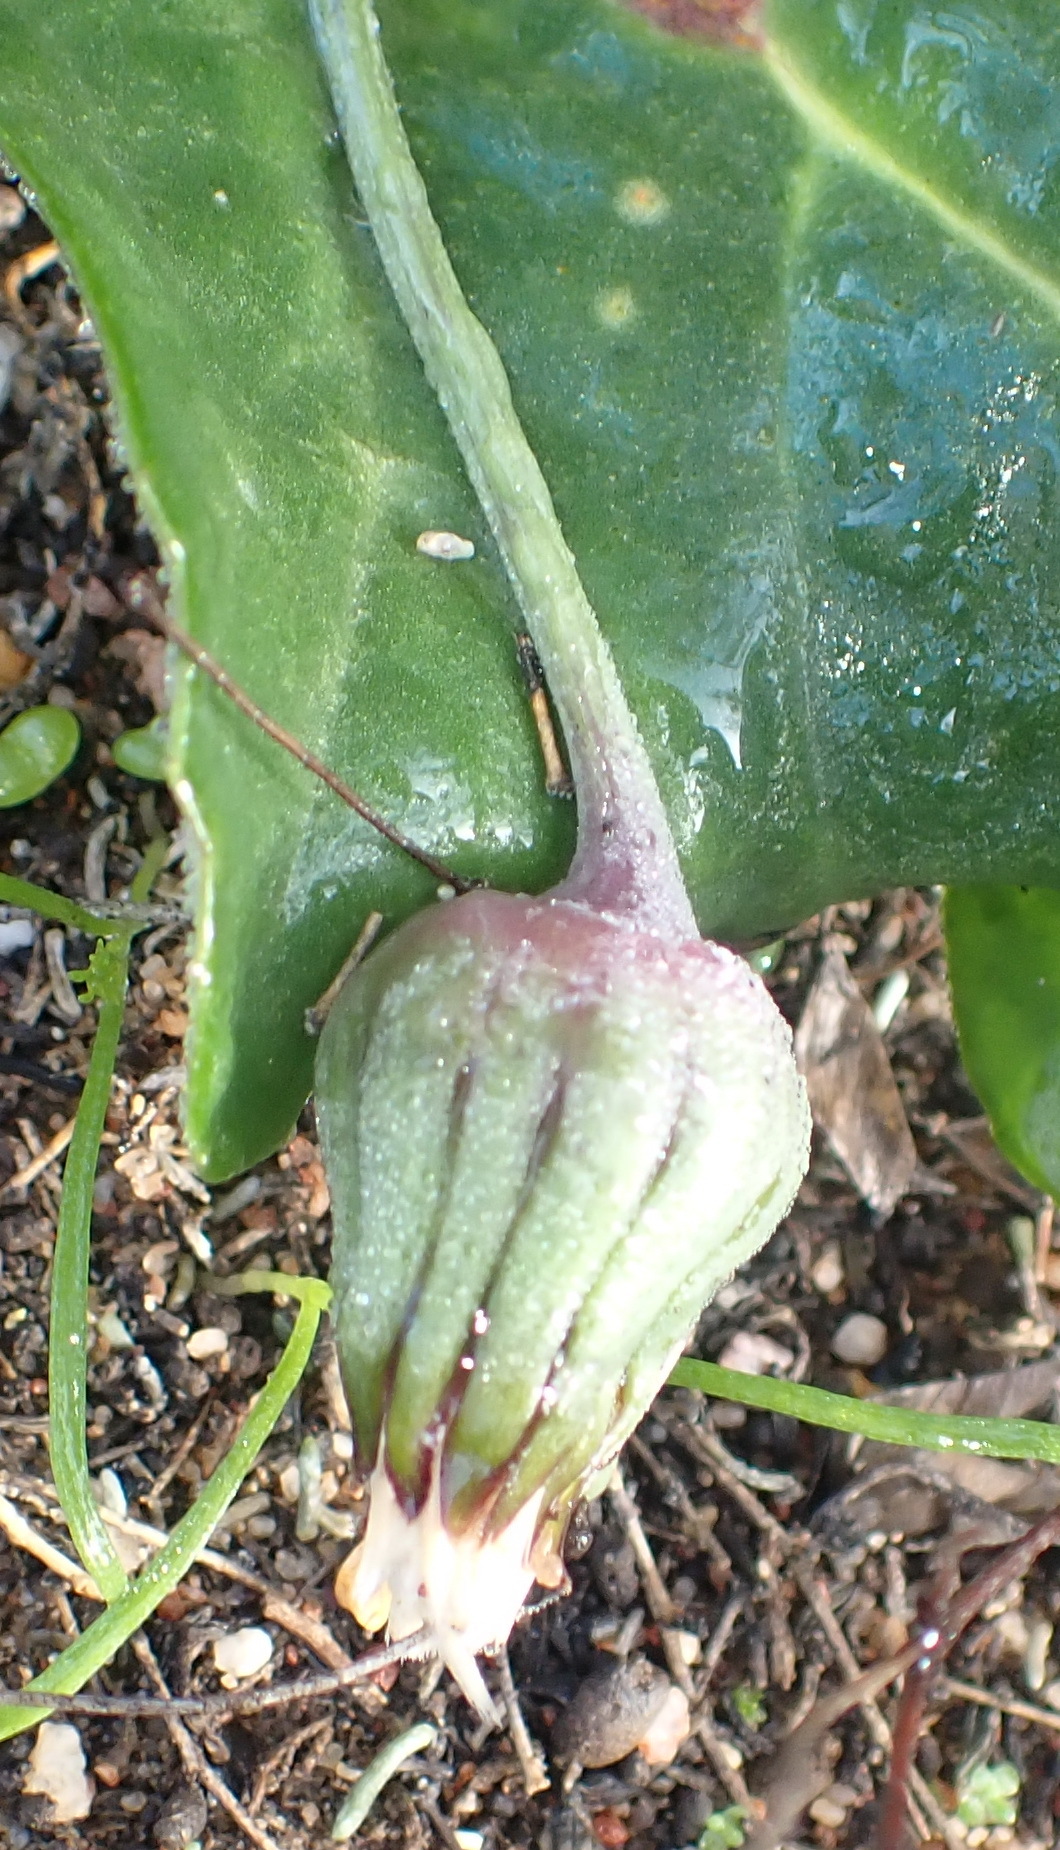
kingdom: Plantae
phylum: Tracheophyta
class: Magnoliopsida
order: Asterales
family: Asteraceae
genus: Othonna
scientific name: Othonna oleracea
